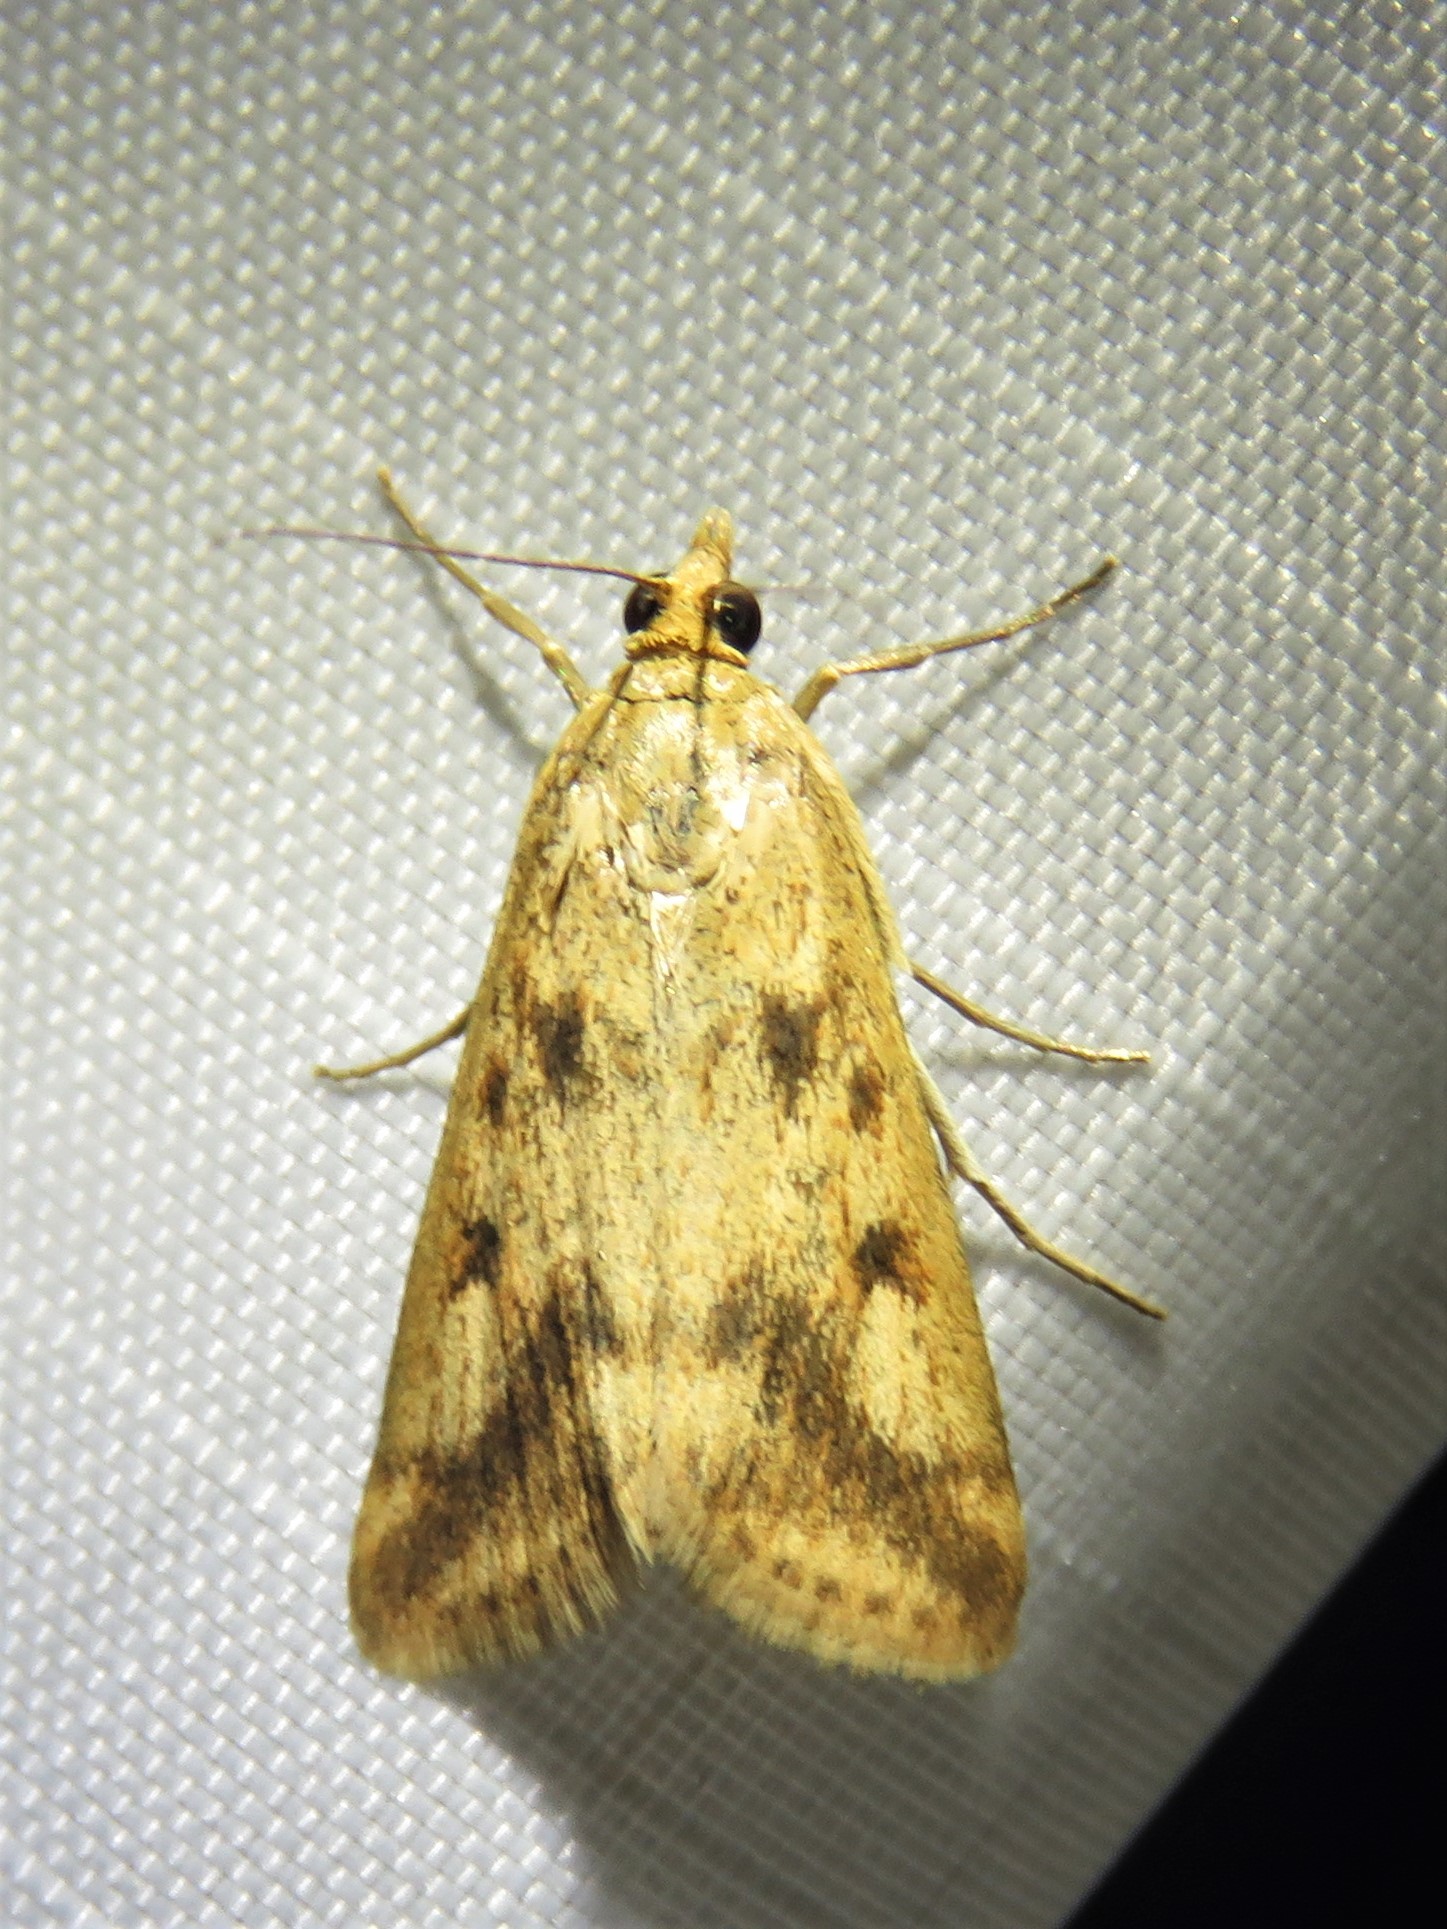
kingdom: Animalia
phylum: Arthropoda
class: Insecta
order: Lepidoptera
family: Crambidae
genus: Achyra
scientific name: Achyra bifidalis
